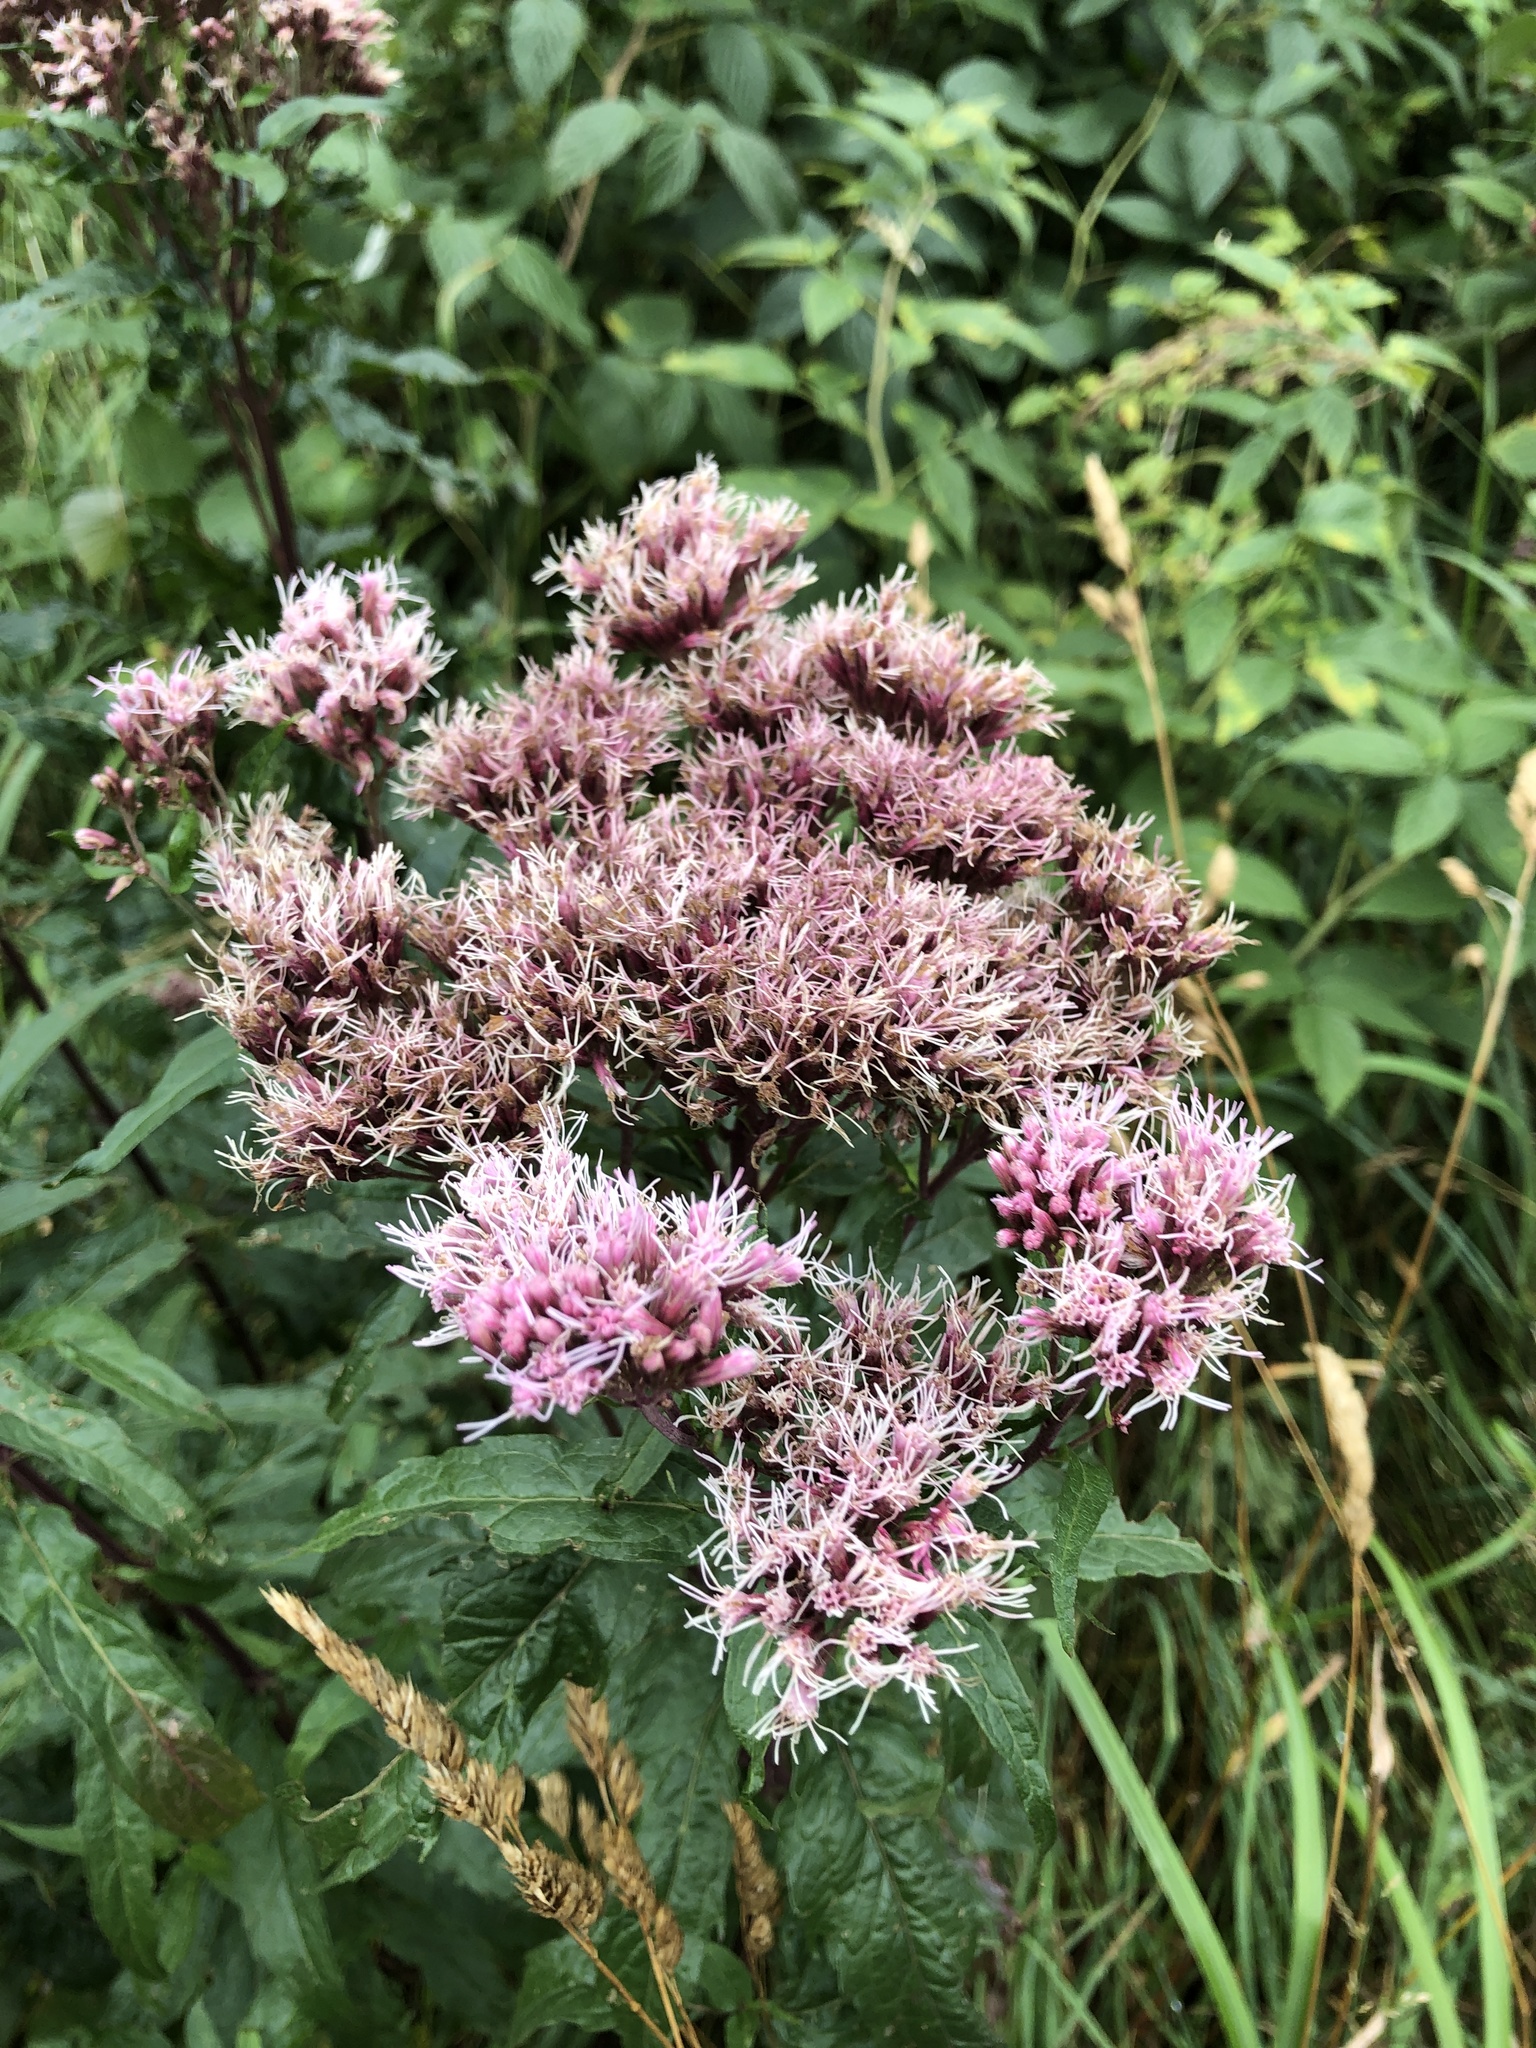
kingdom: Plantae
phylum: Tracheophyta
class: Magnoliopsida
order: Asterales
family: Asteraceae
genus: Eupatorium
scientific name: Eupatorium cannabinum
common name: Hemp-agrimony
